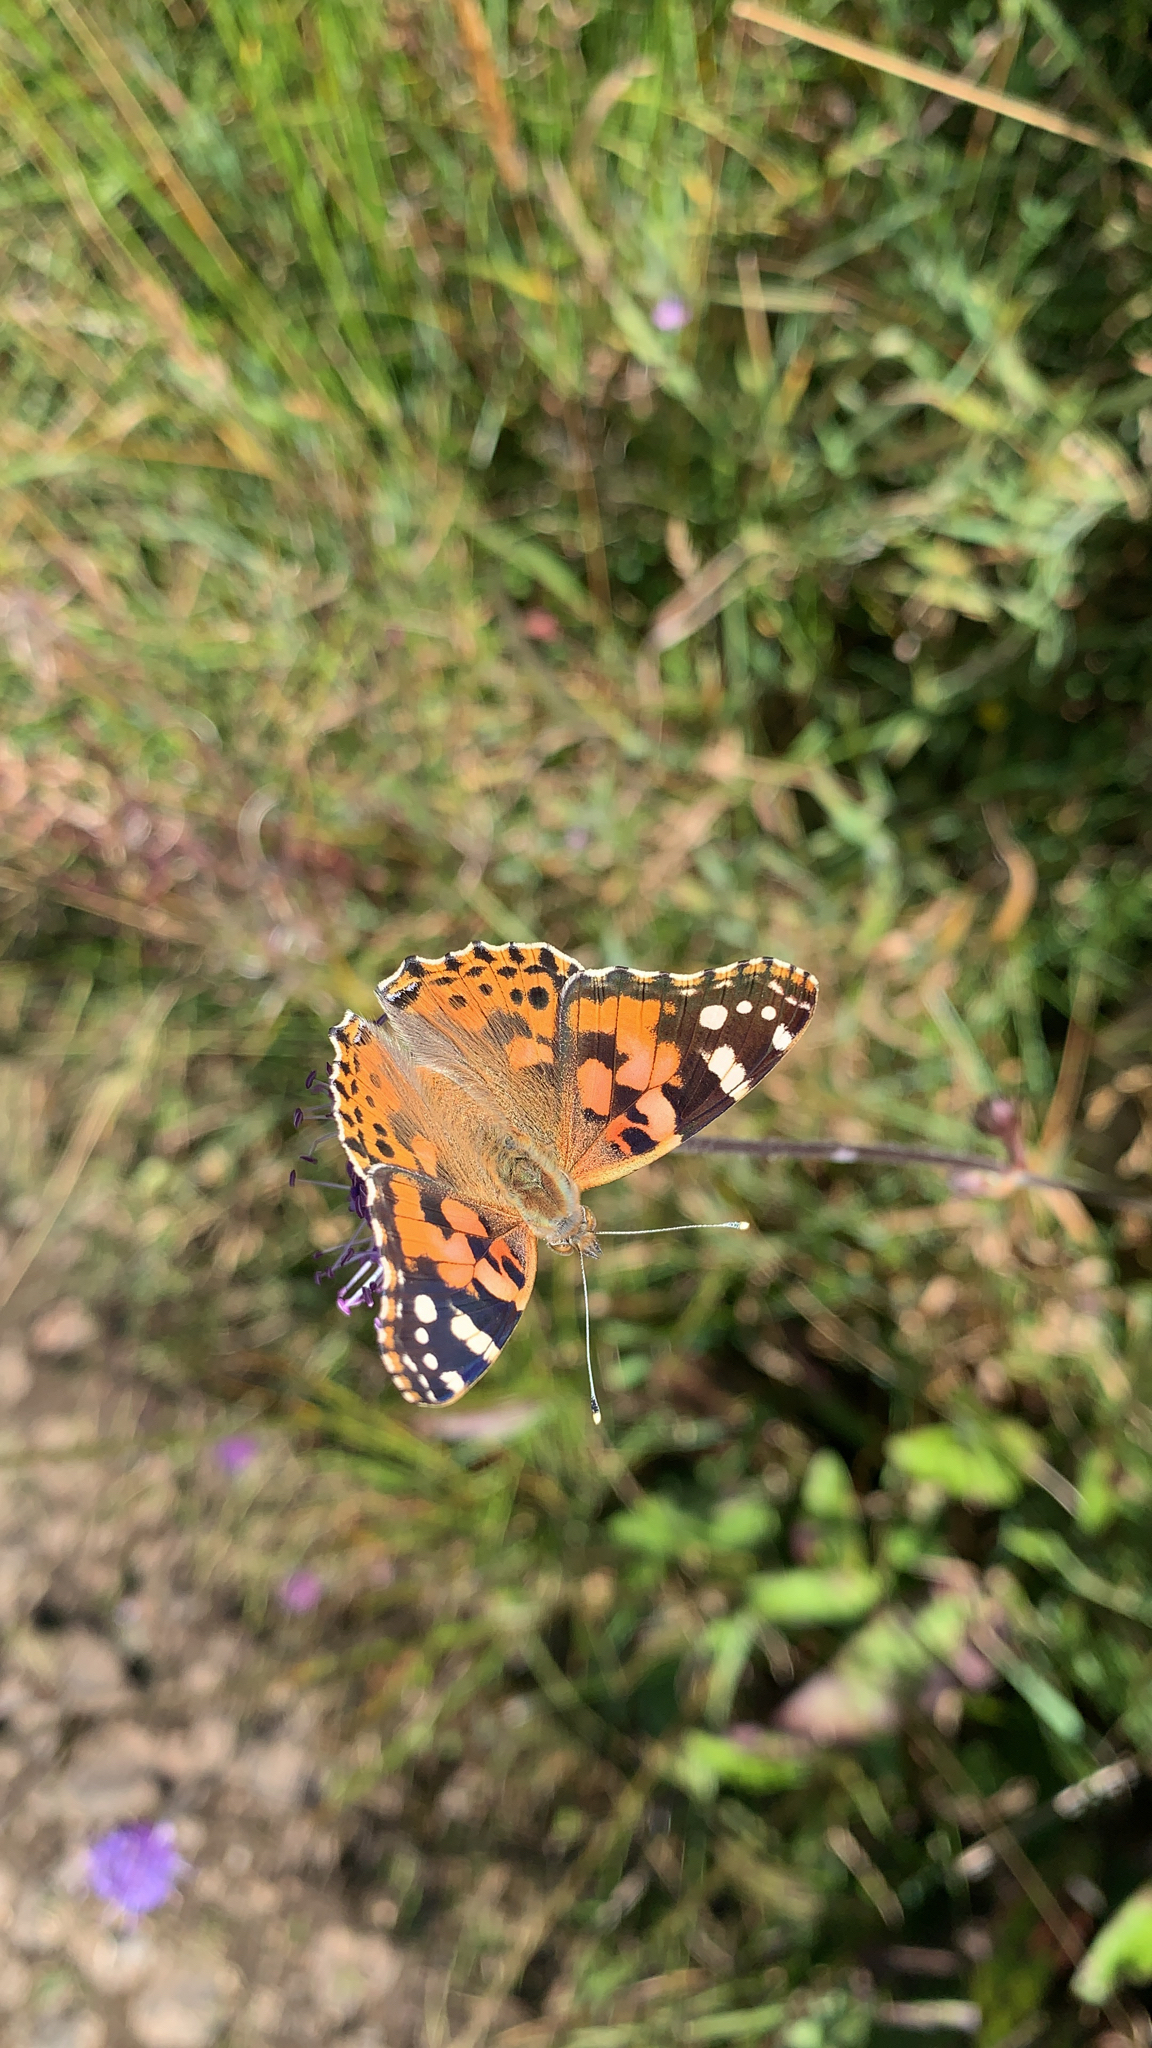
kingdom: Animalia
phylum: Arthropoda
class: Insecta
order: Lepidoptera
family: Nymphalidae
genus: Vanessa
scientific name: Vanessa cardui
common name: Painted lady
